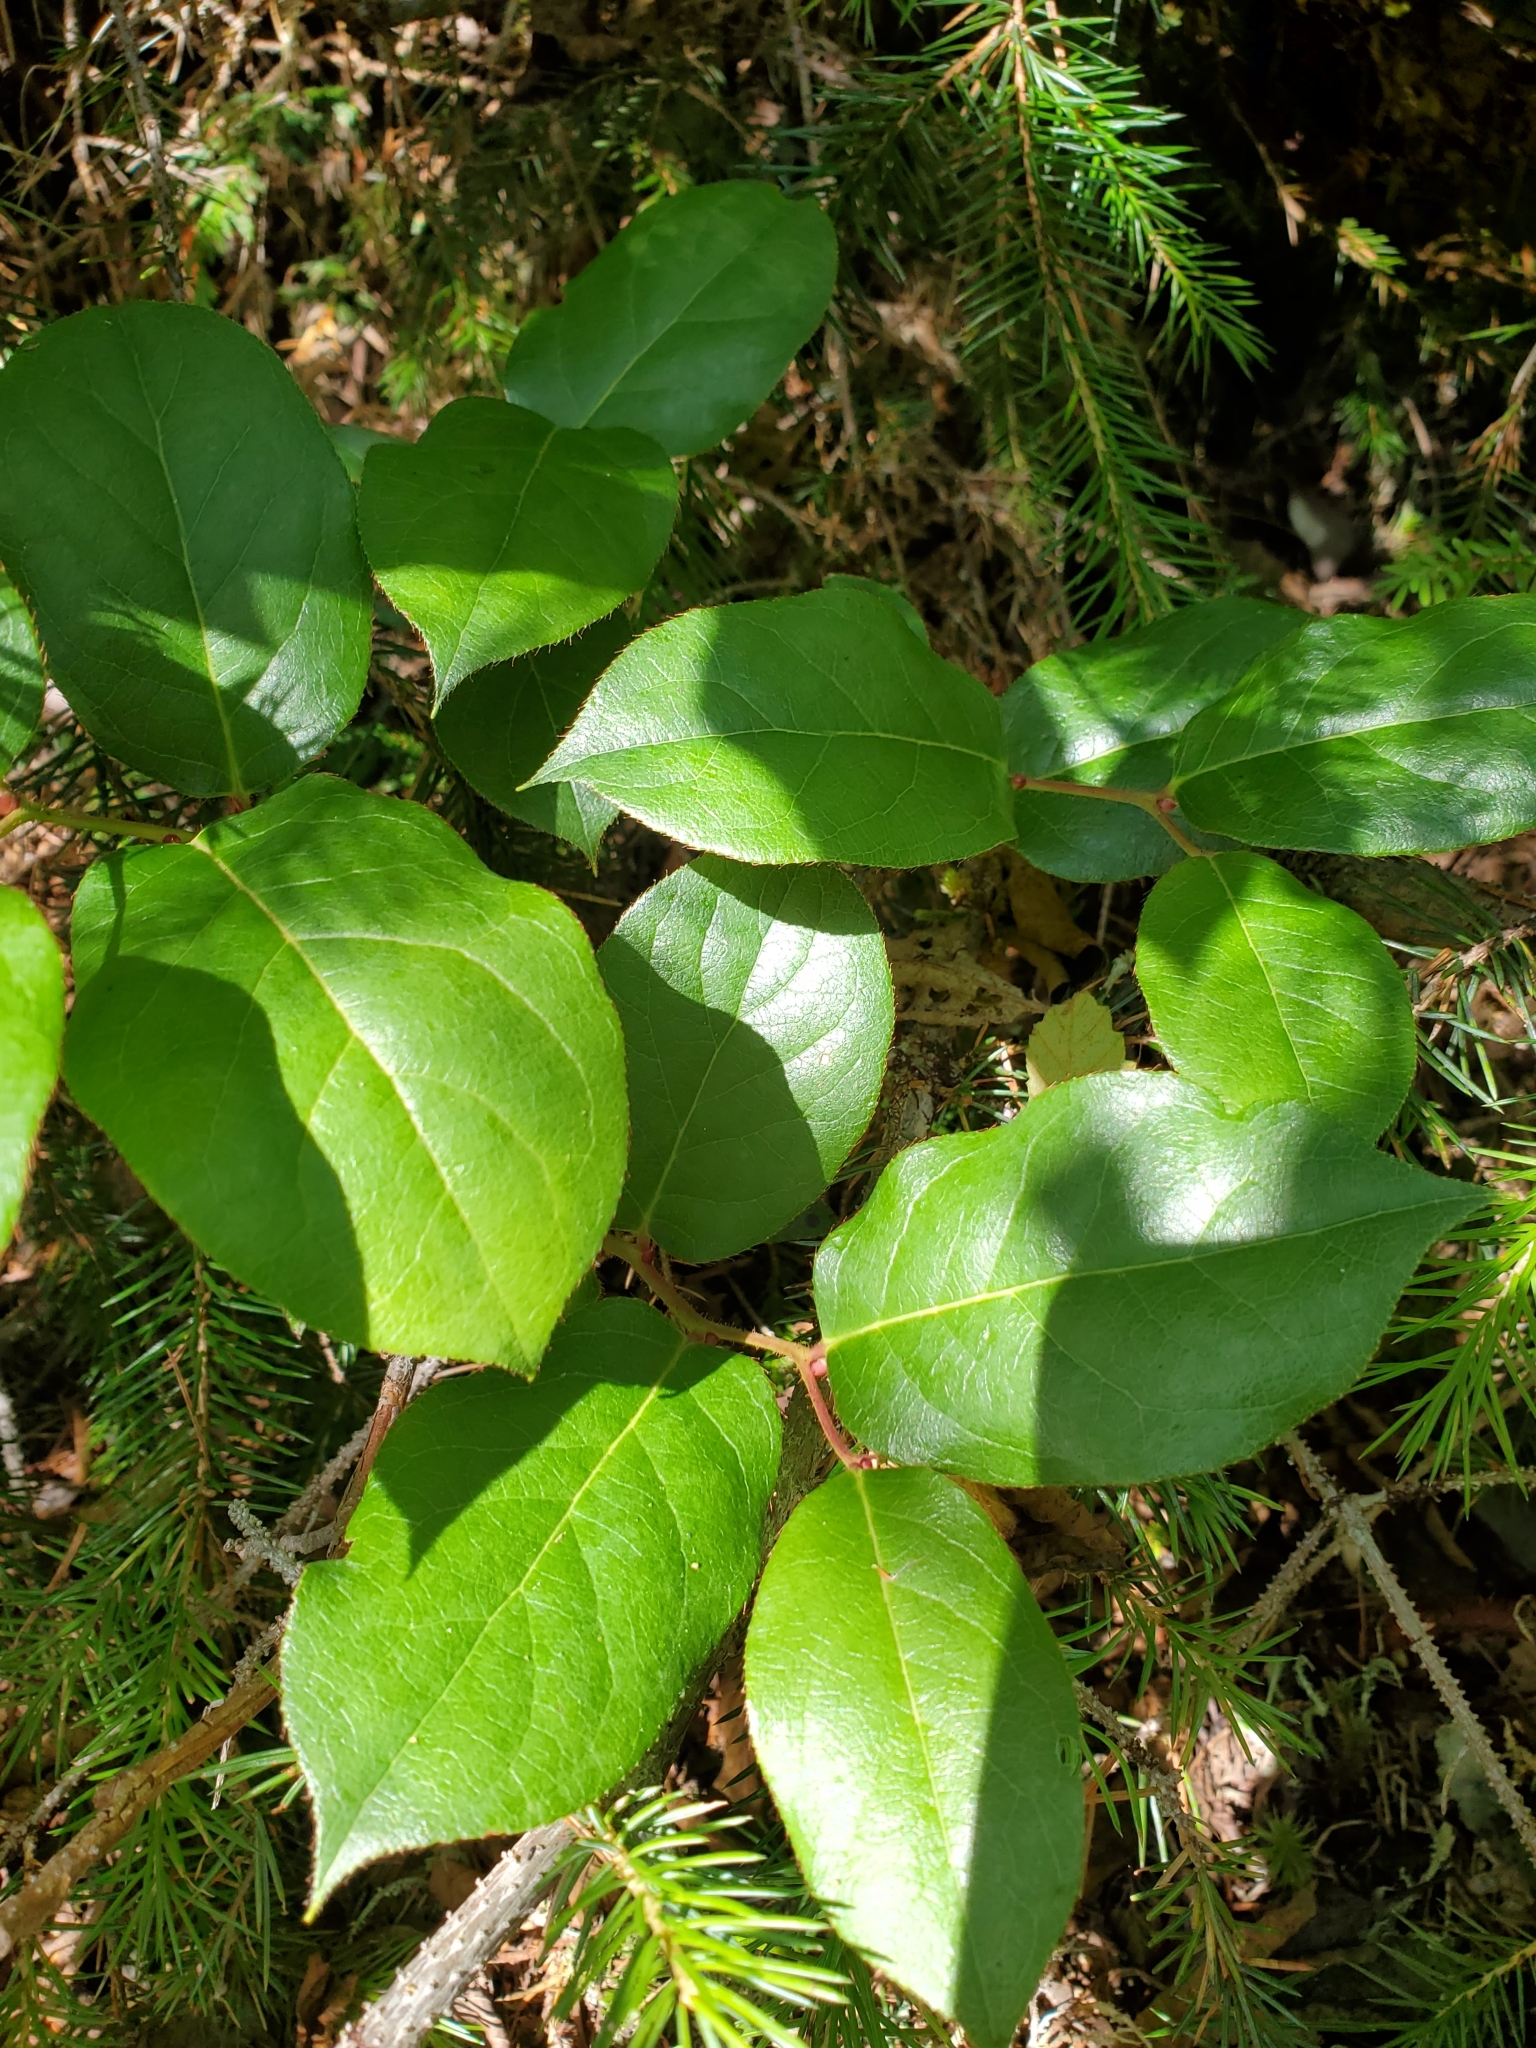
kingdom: Plantae
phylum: Tracheophyta
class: Magnoliopsida
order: Ericales
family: Ericaceae
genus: Gaultheria
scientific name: Gaultheria shallon
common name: Shallon
